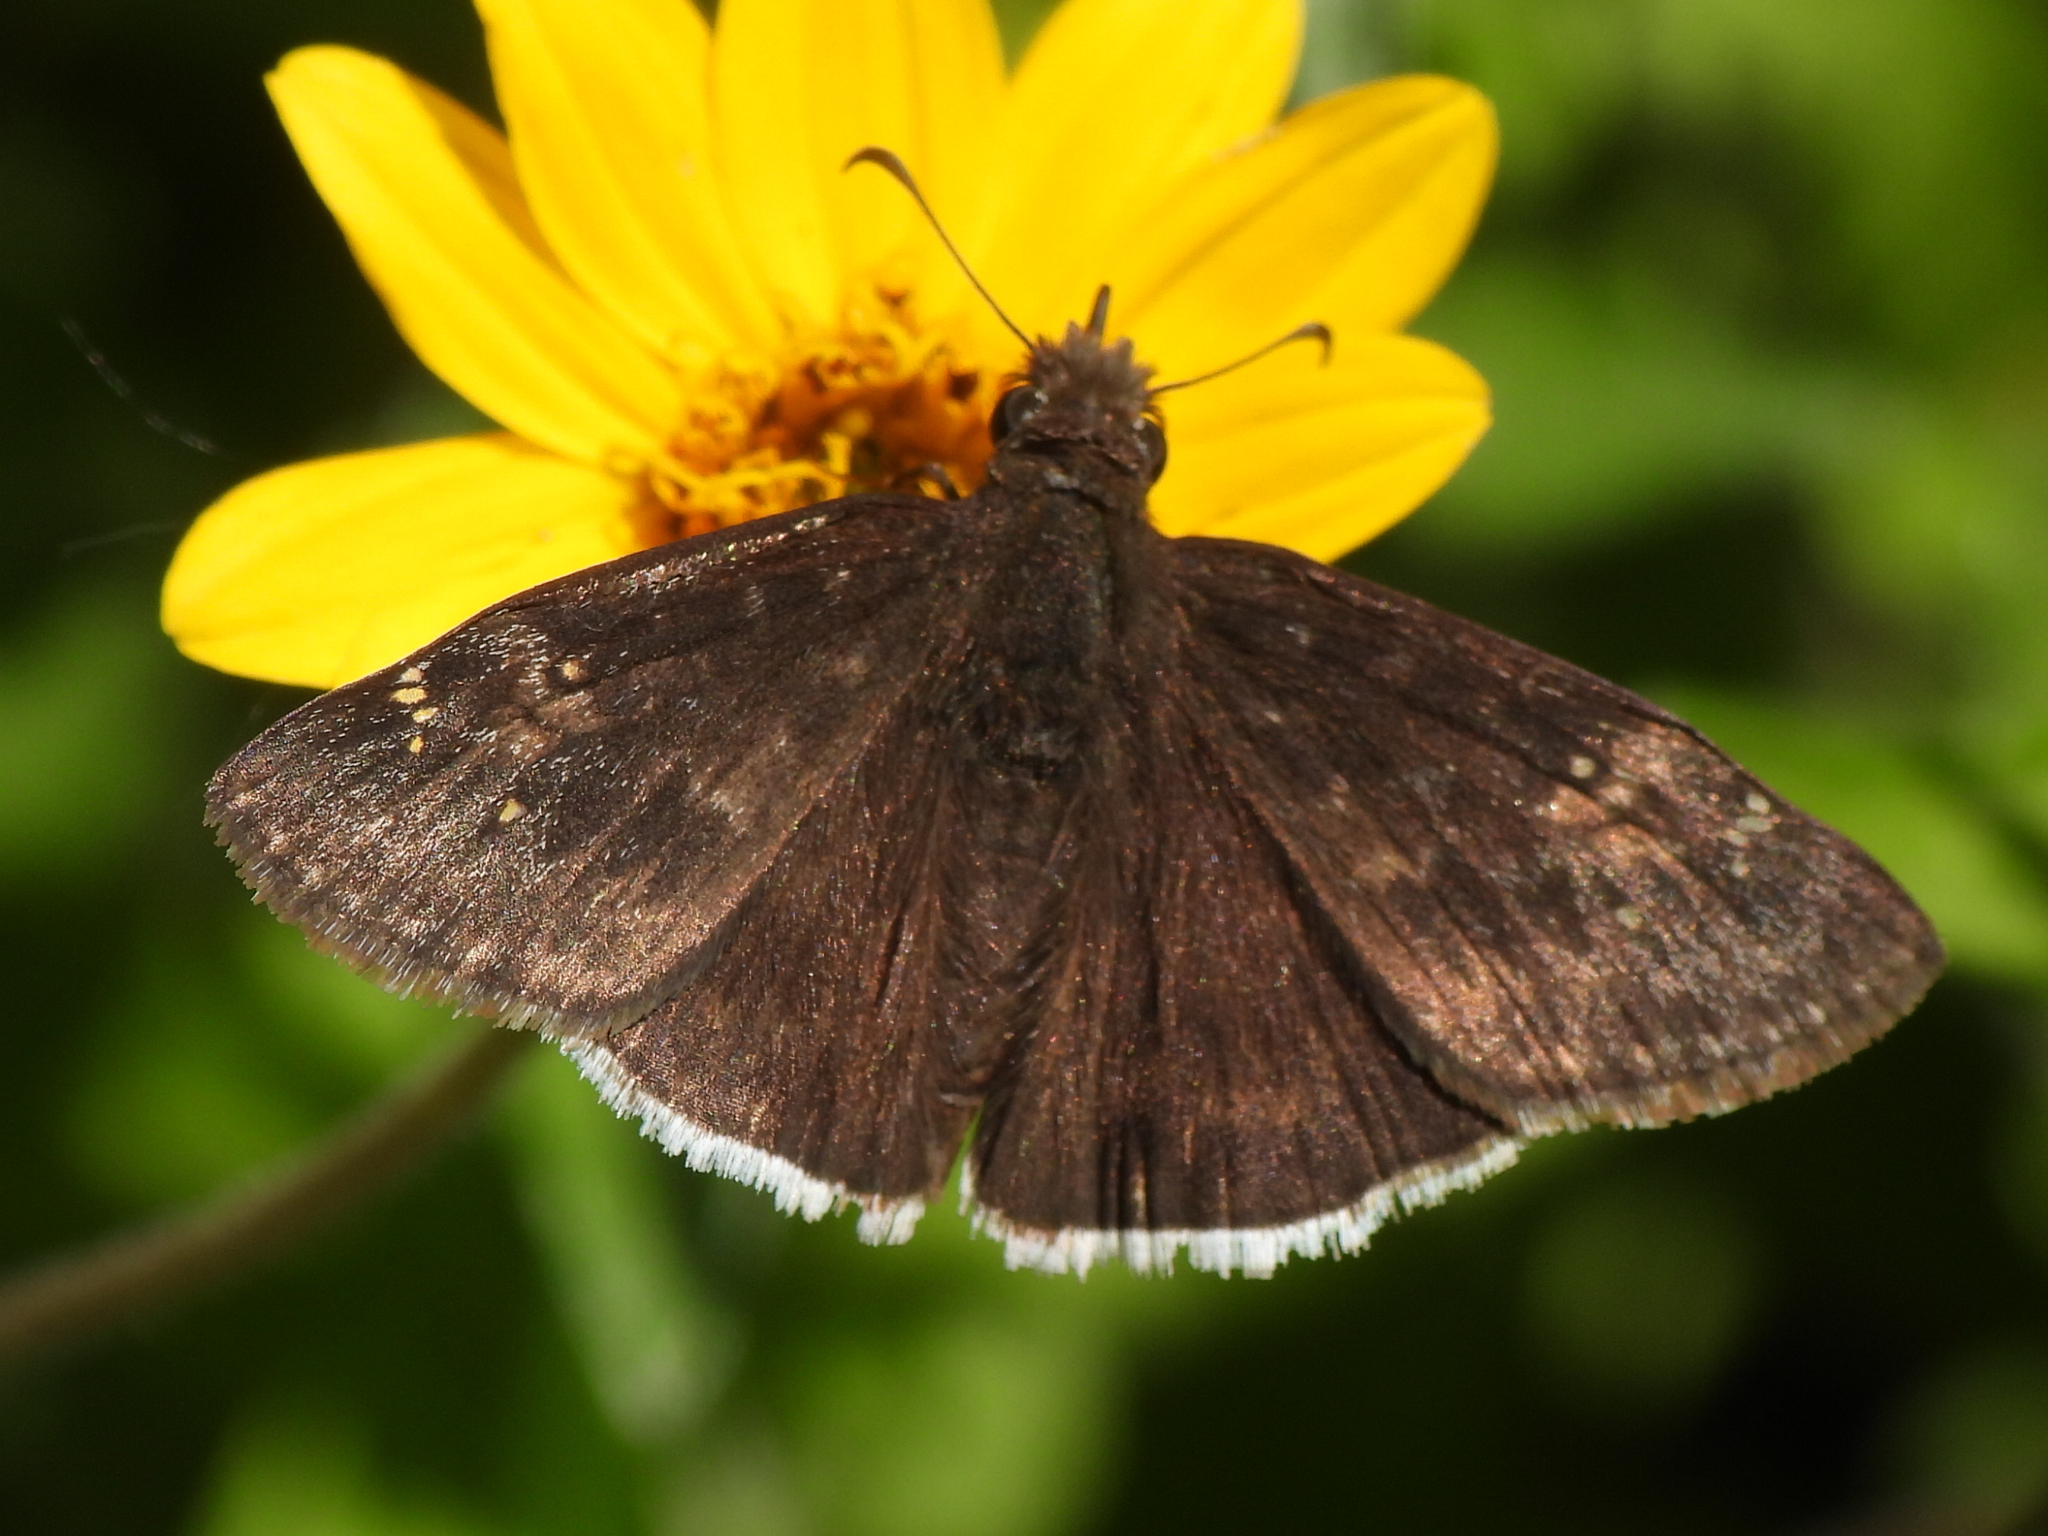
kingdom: Animalia
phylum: Arthropoda
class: Insecta
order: Lepidoptera
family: Hesperiidae
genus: Erynnis
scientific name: Erynnis funeralis
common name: Funereal duskywing
